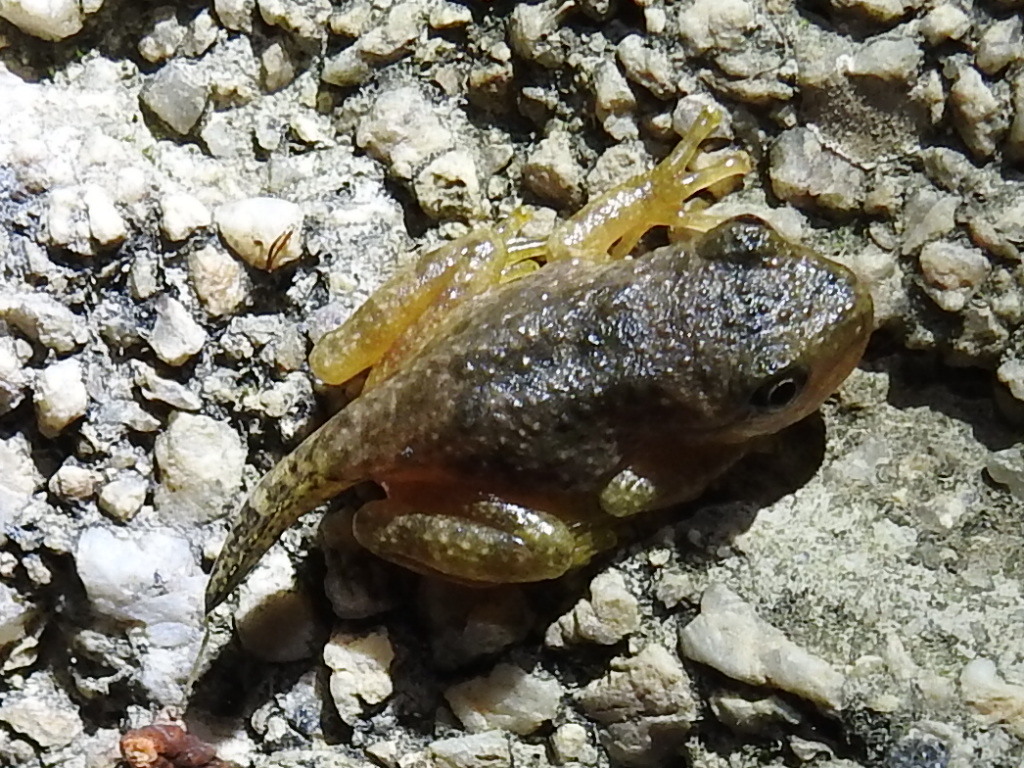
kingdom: Animalia
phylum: Chordata
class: Amphibia
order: Anura
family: Hylidae
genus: Dryophytes
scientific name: Dryophytes arenicolor
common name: Canyon treefrog
